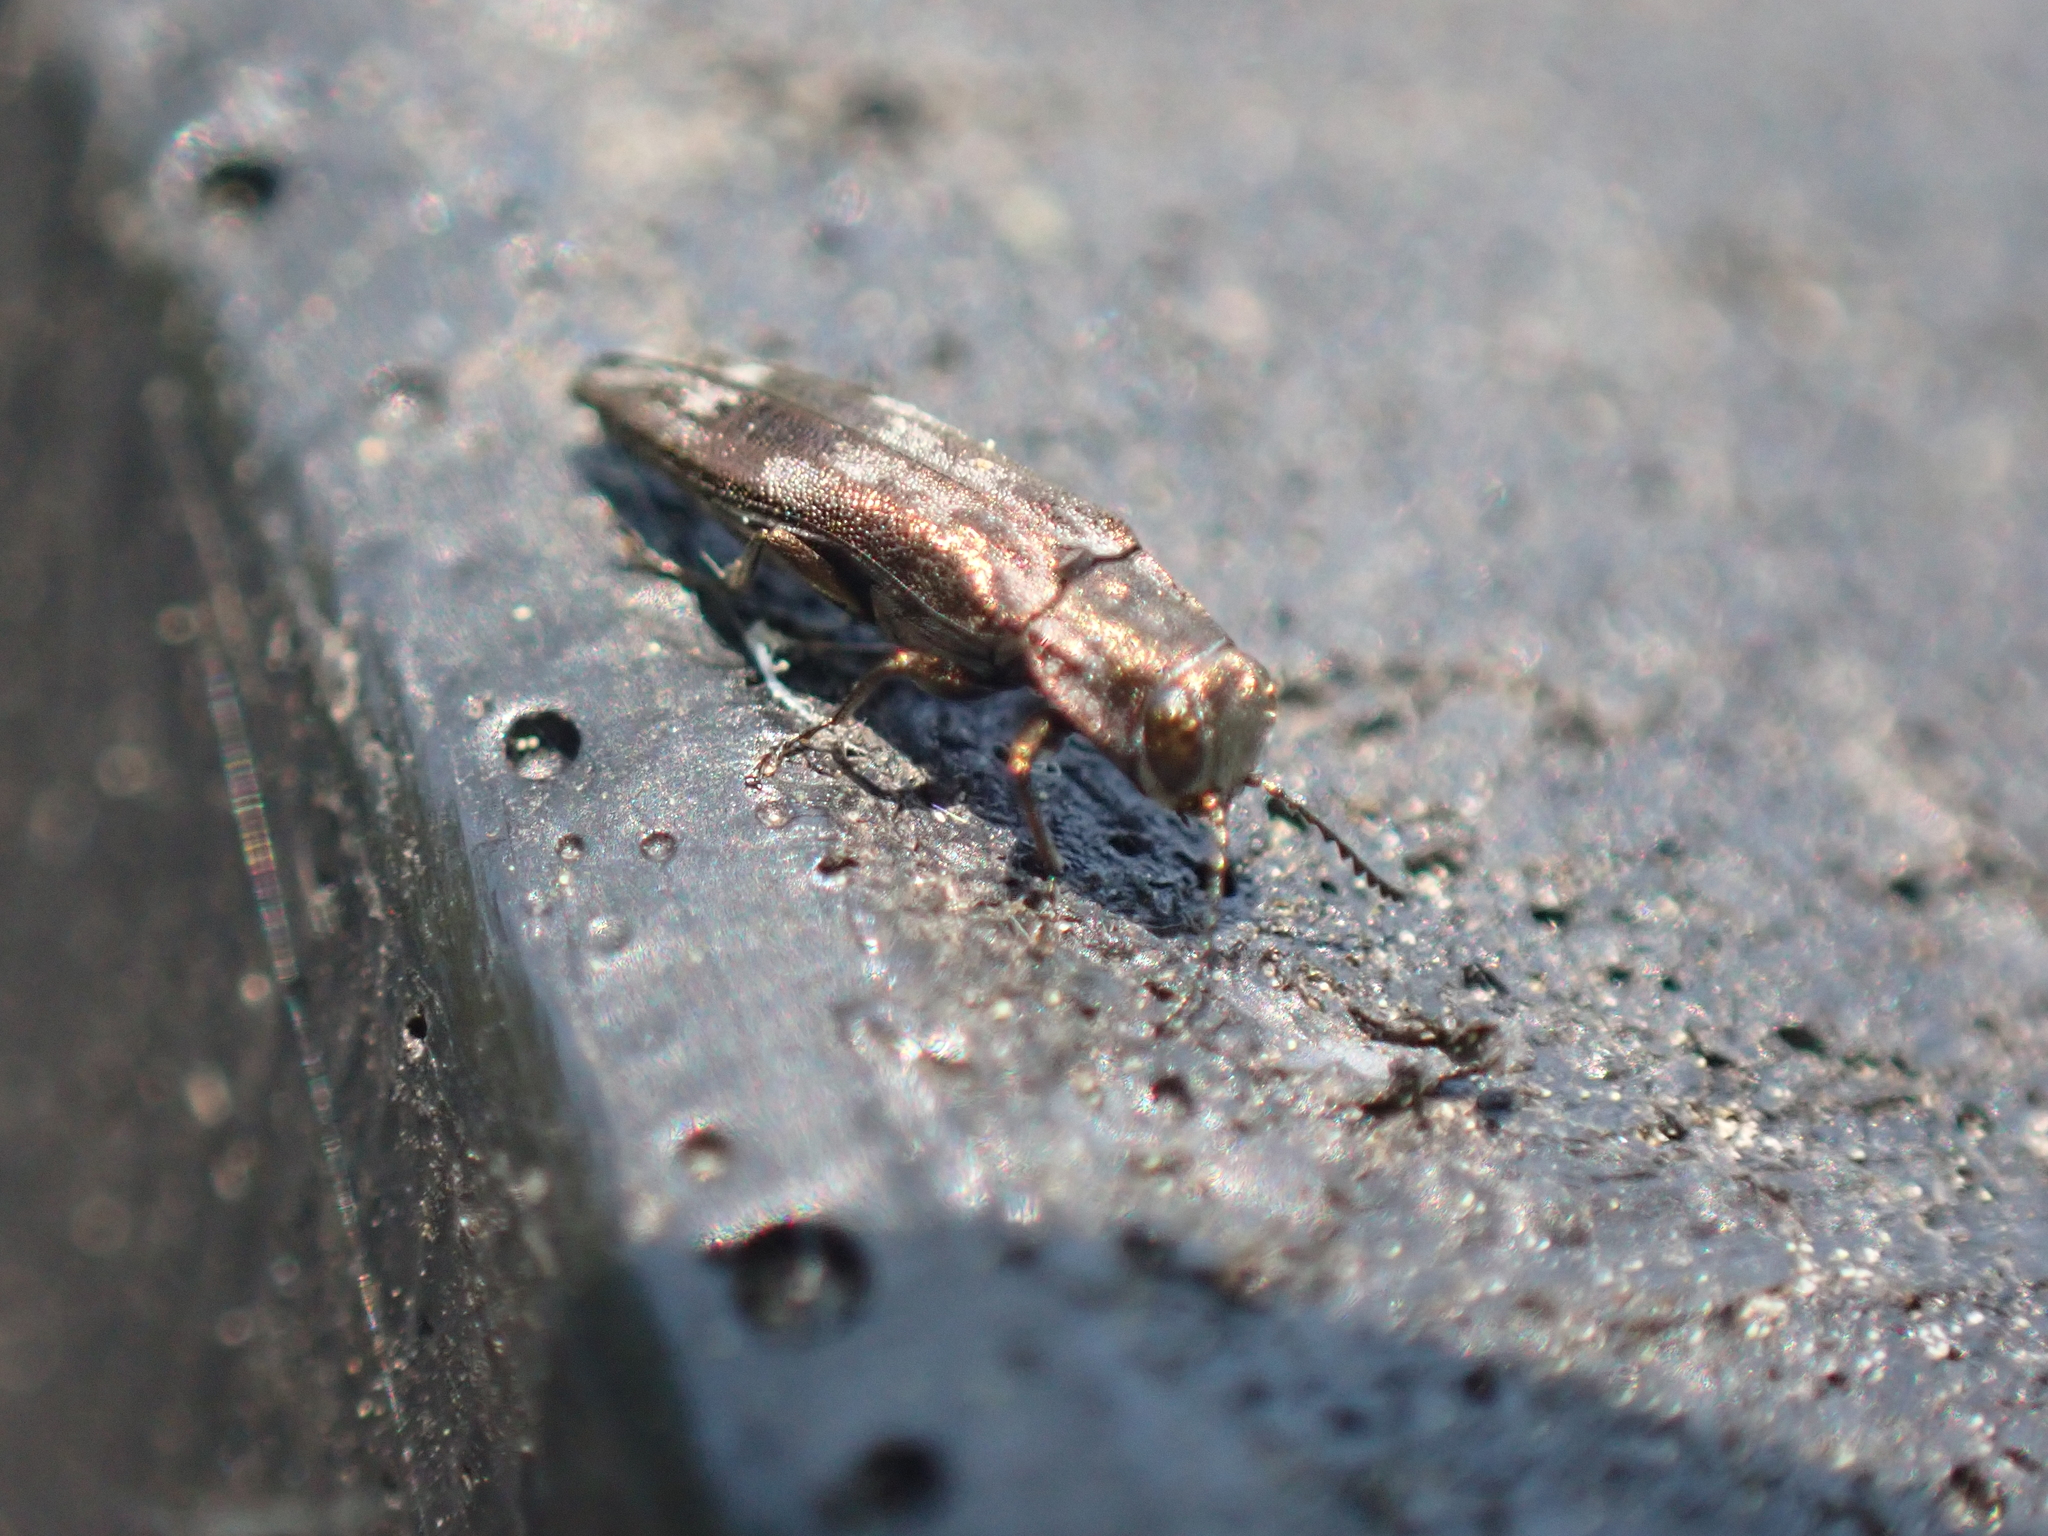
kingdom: Animalia
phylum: Arthropoda
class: Insecta
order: Coleoptera
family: Buprestidae
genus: Agrilus
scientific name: Agrilus lecontei
